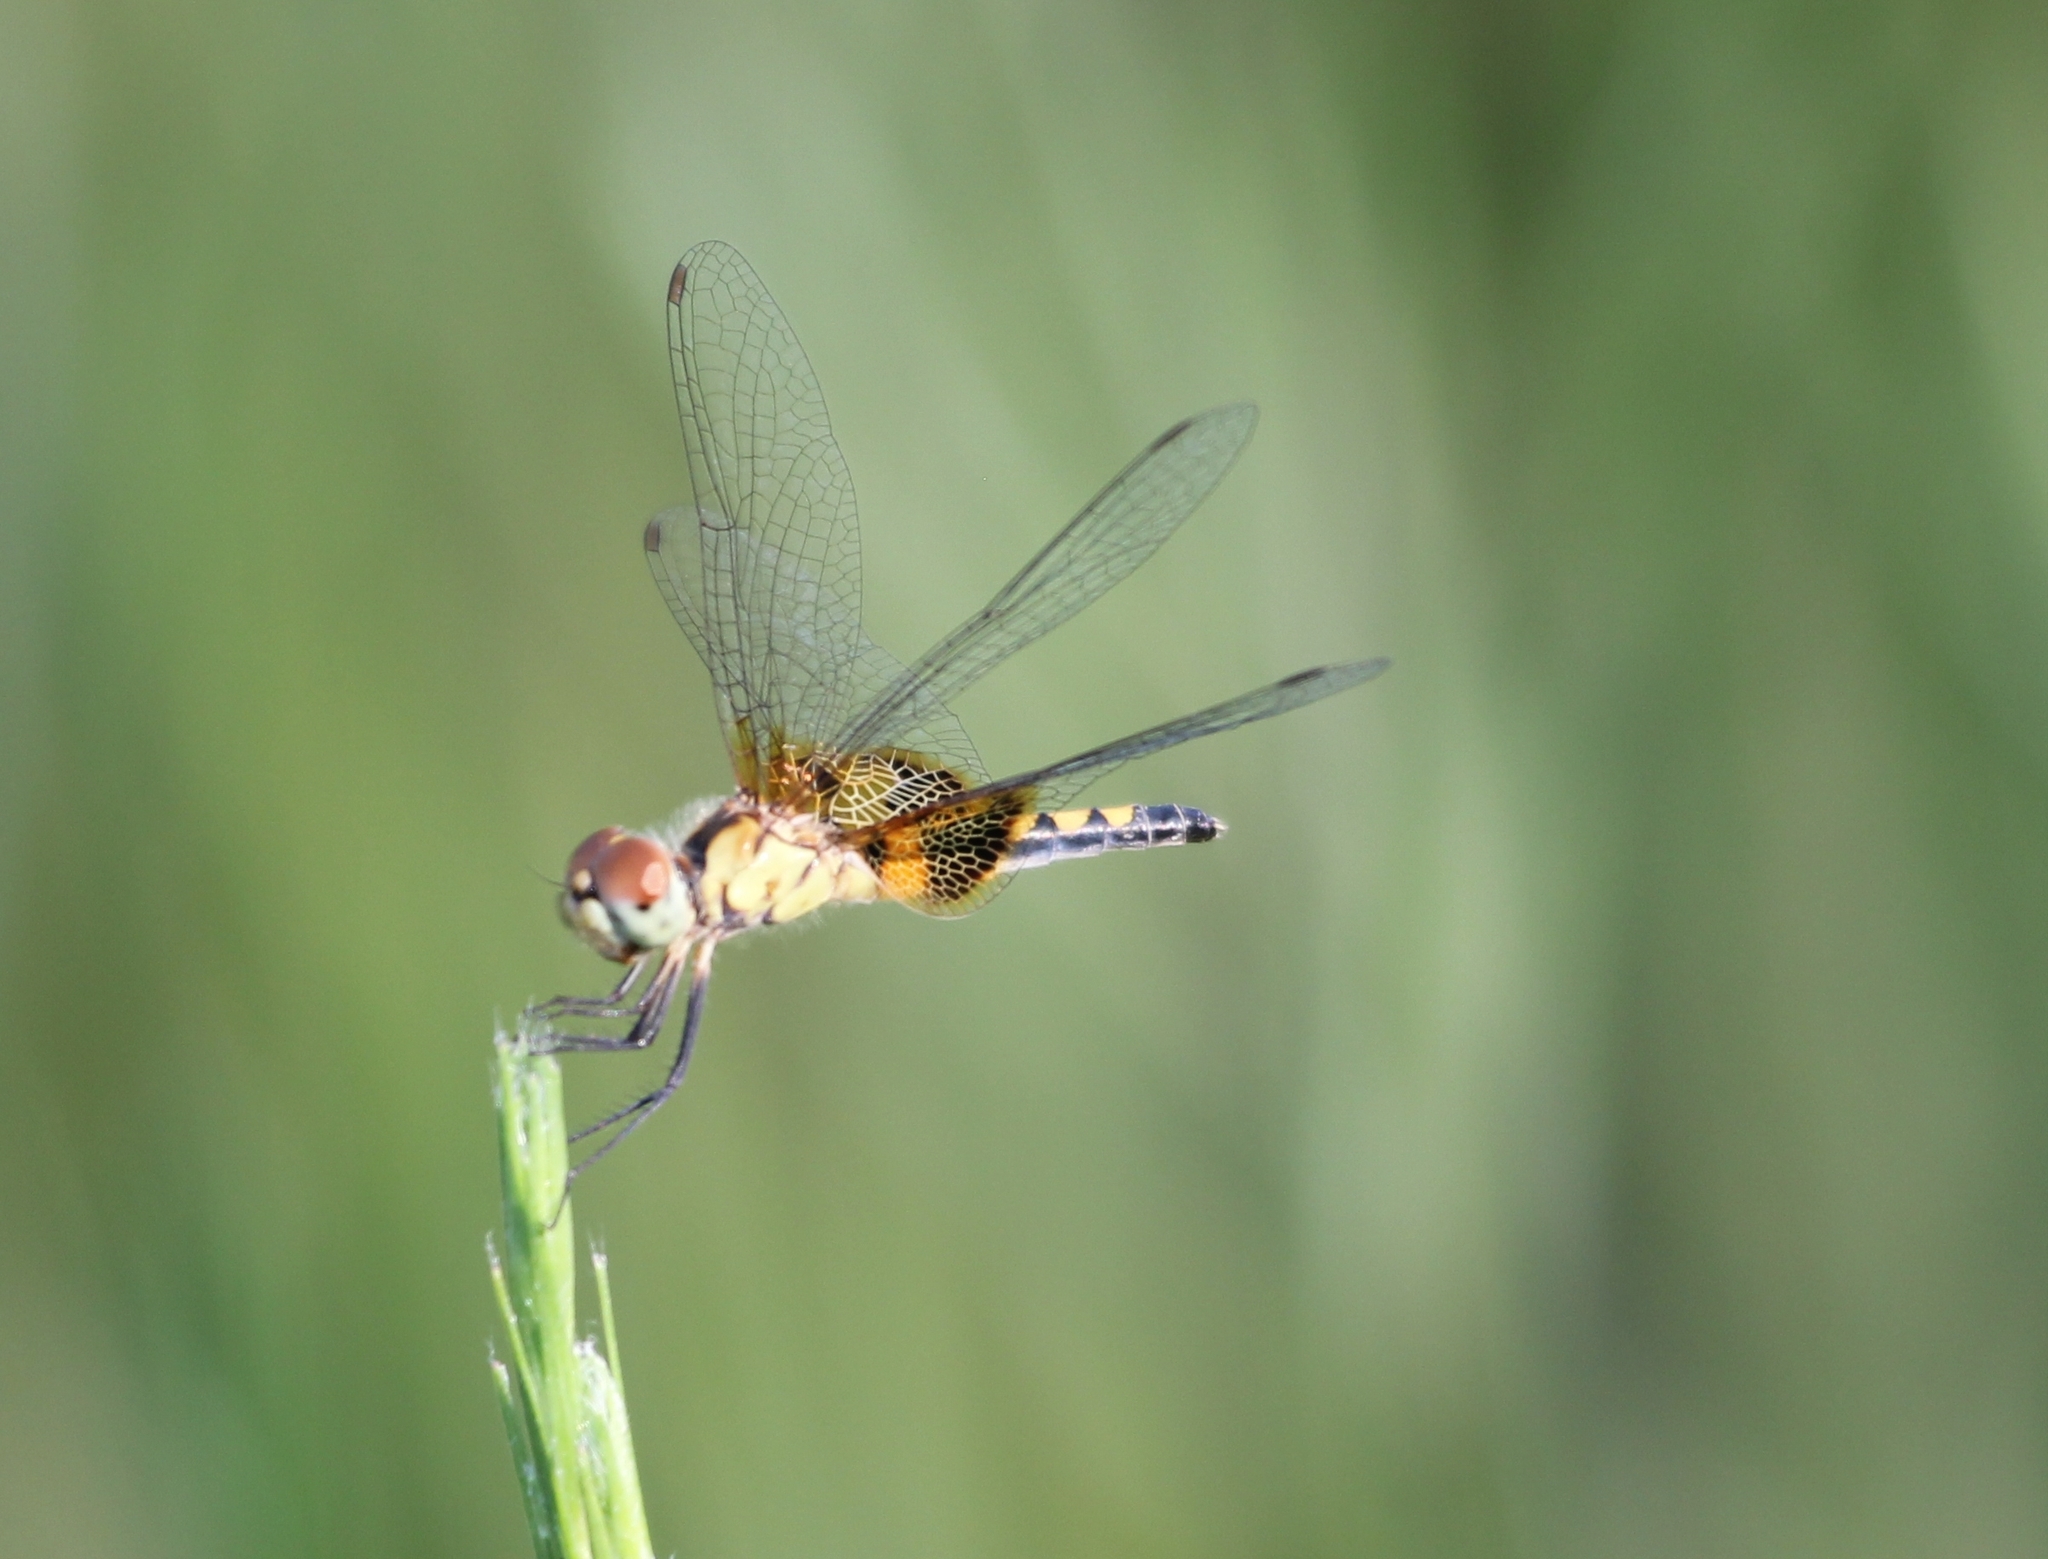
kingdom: Animalia
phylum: Arthropoda
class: Insecta
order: Odonata
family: Libellulidae
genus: Celithemis
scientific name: Celithemis amanda
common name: Amanda's pennant
